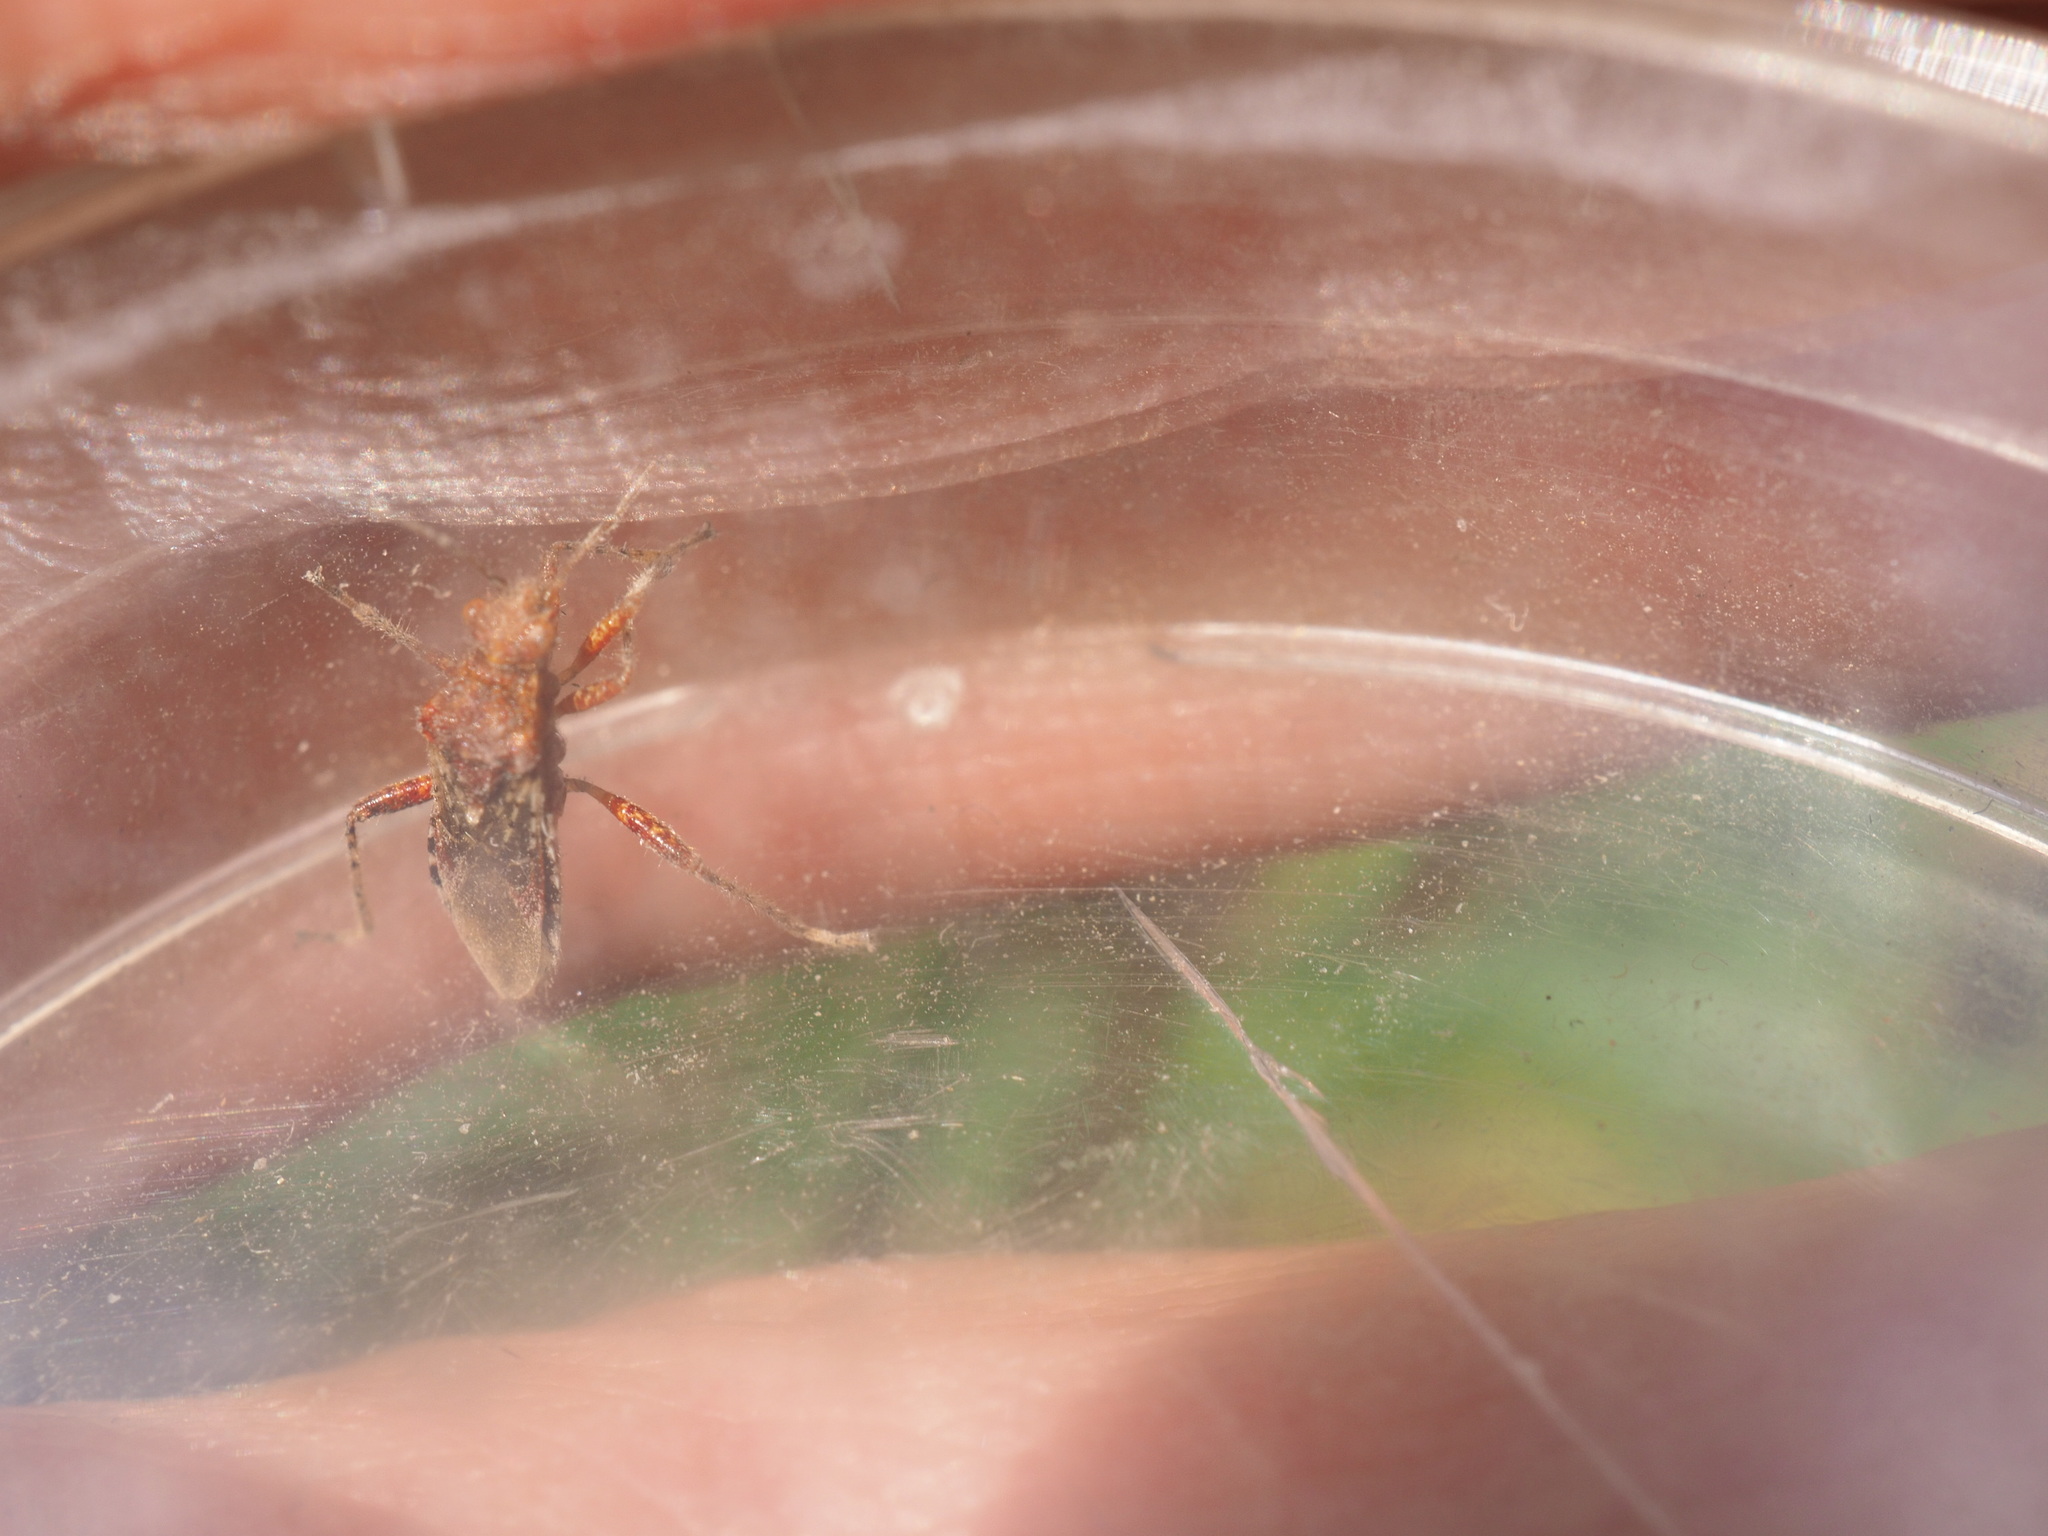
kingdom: Animalia
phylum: Arthropoda
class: Insecta
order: Hemiptera
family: Rhopalidae
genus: Rhopalus
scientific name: Rhopalus subrufus
